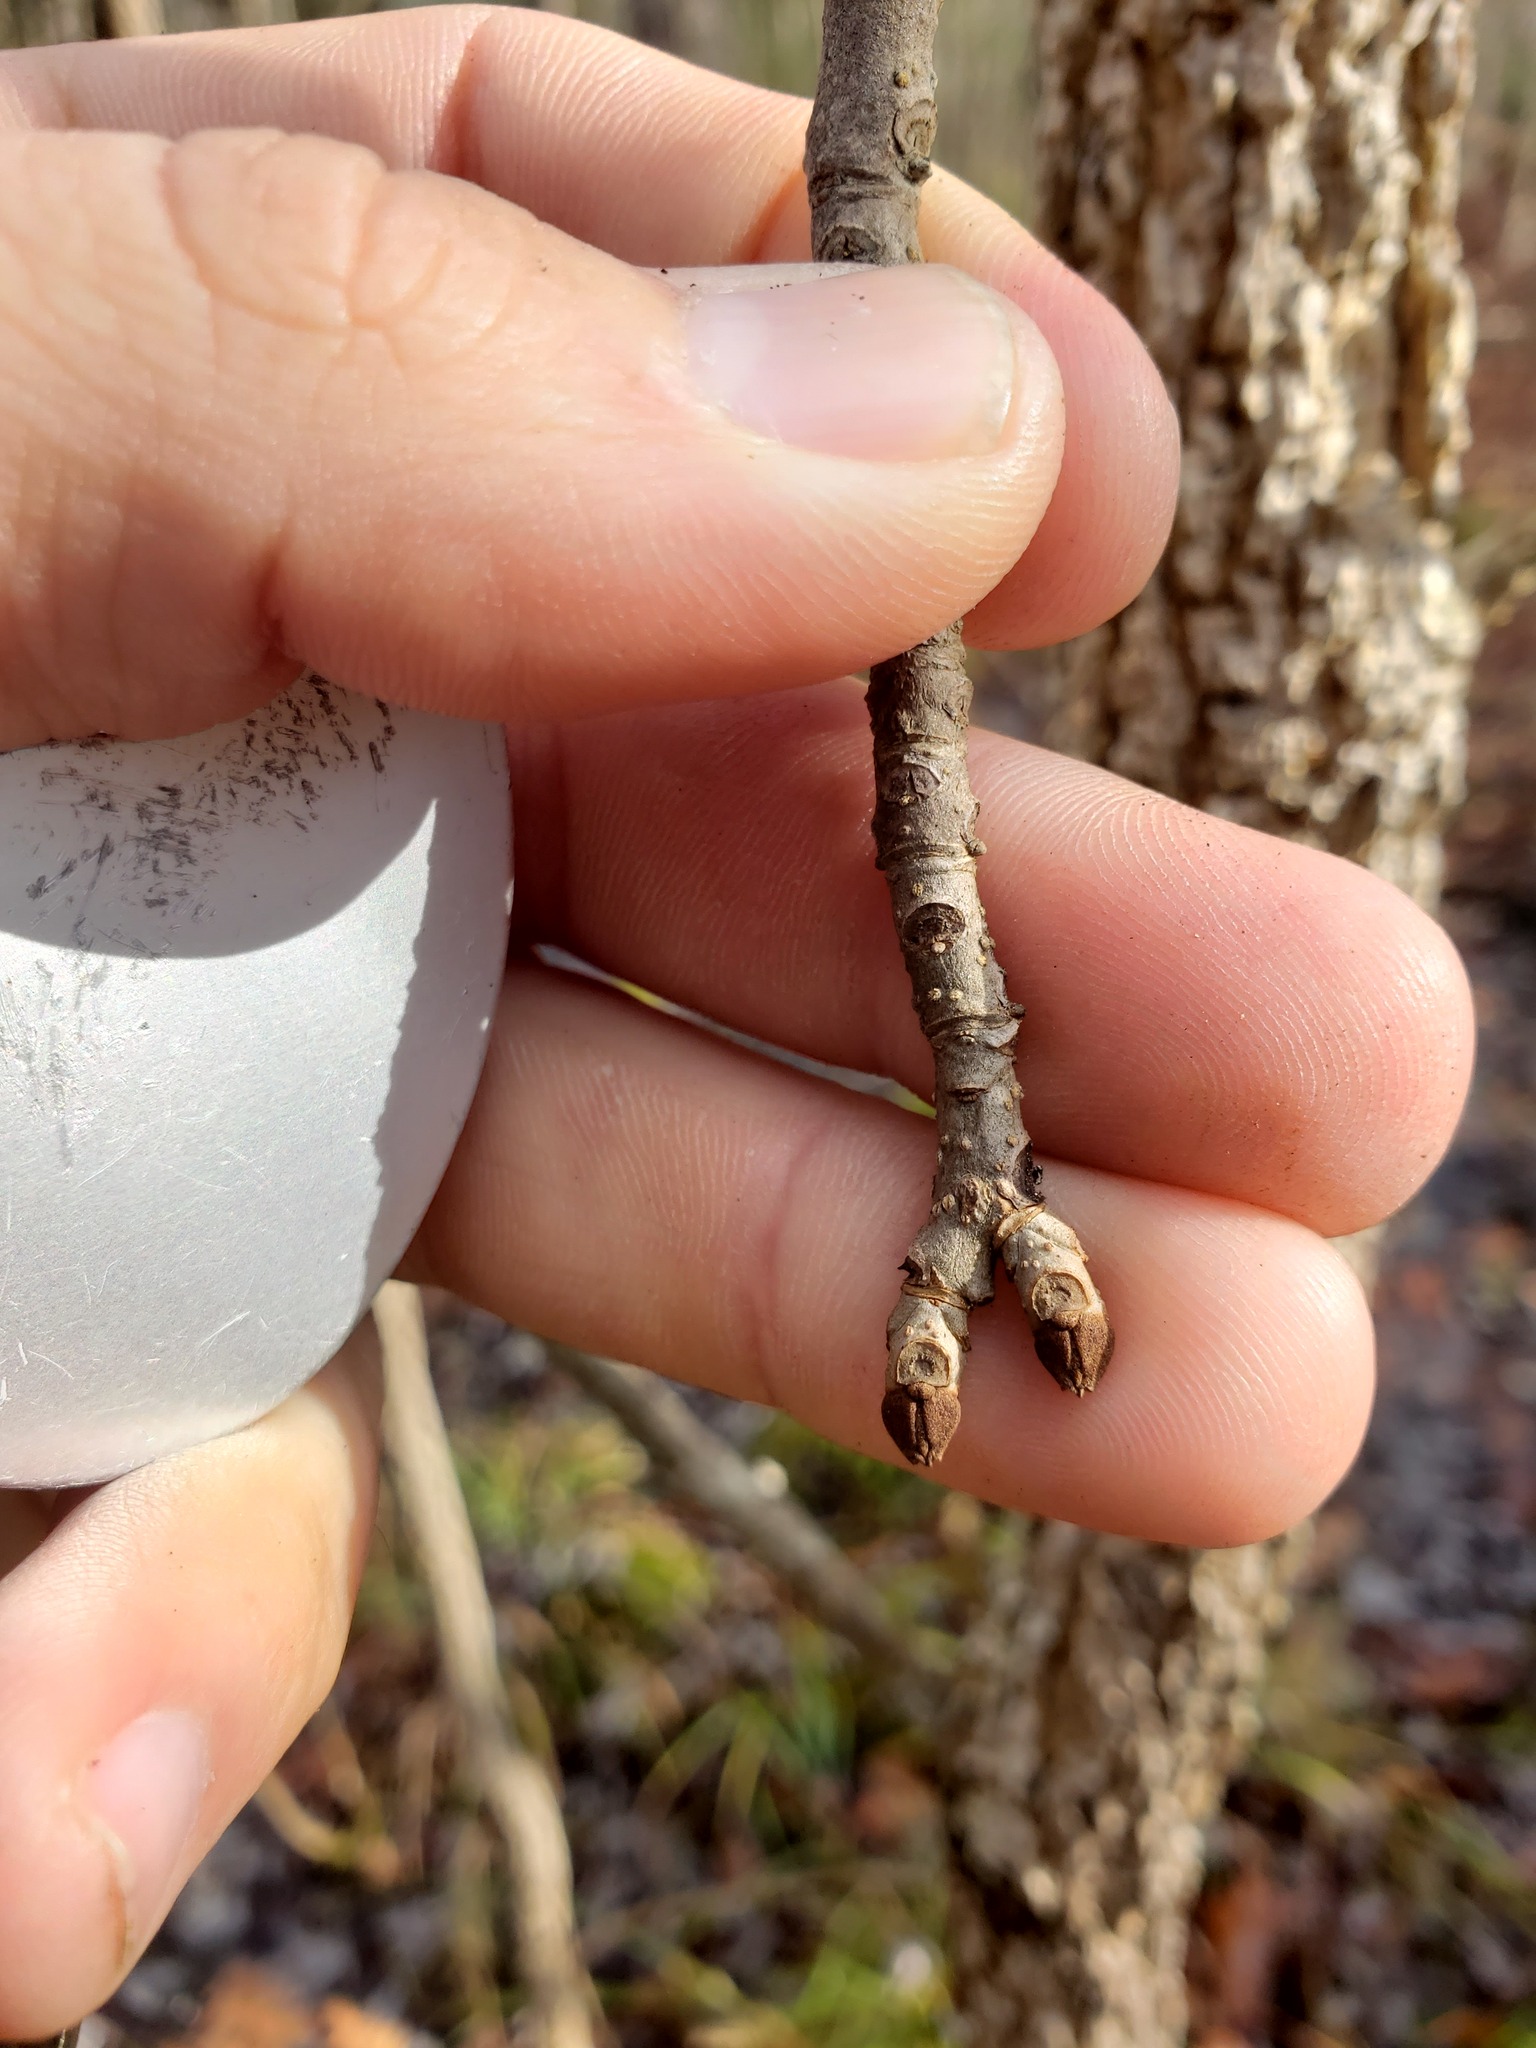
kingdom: Plantae
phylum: Tracheophyta
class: Magnoliopsida
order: Lamiales
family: Oleaceae
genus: Fraxinus
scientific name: Fraxinus nigra
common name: Black ash
